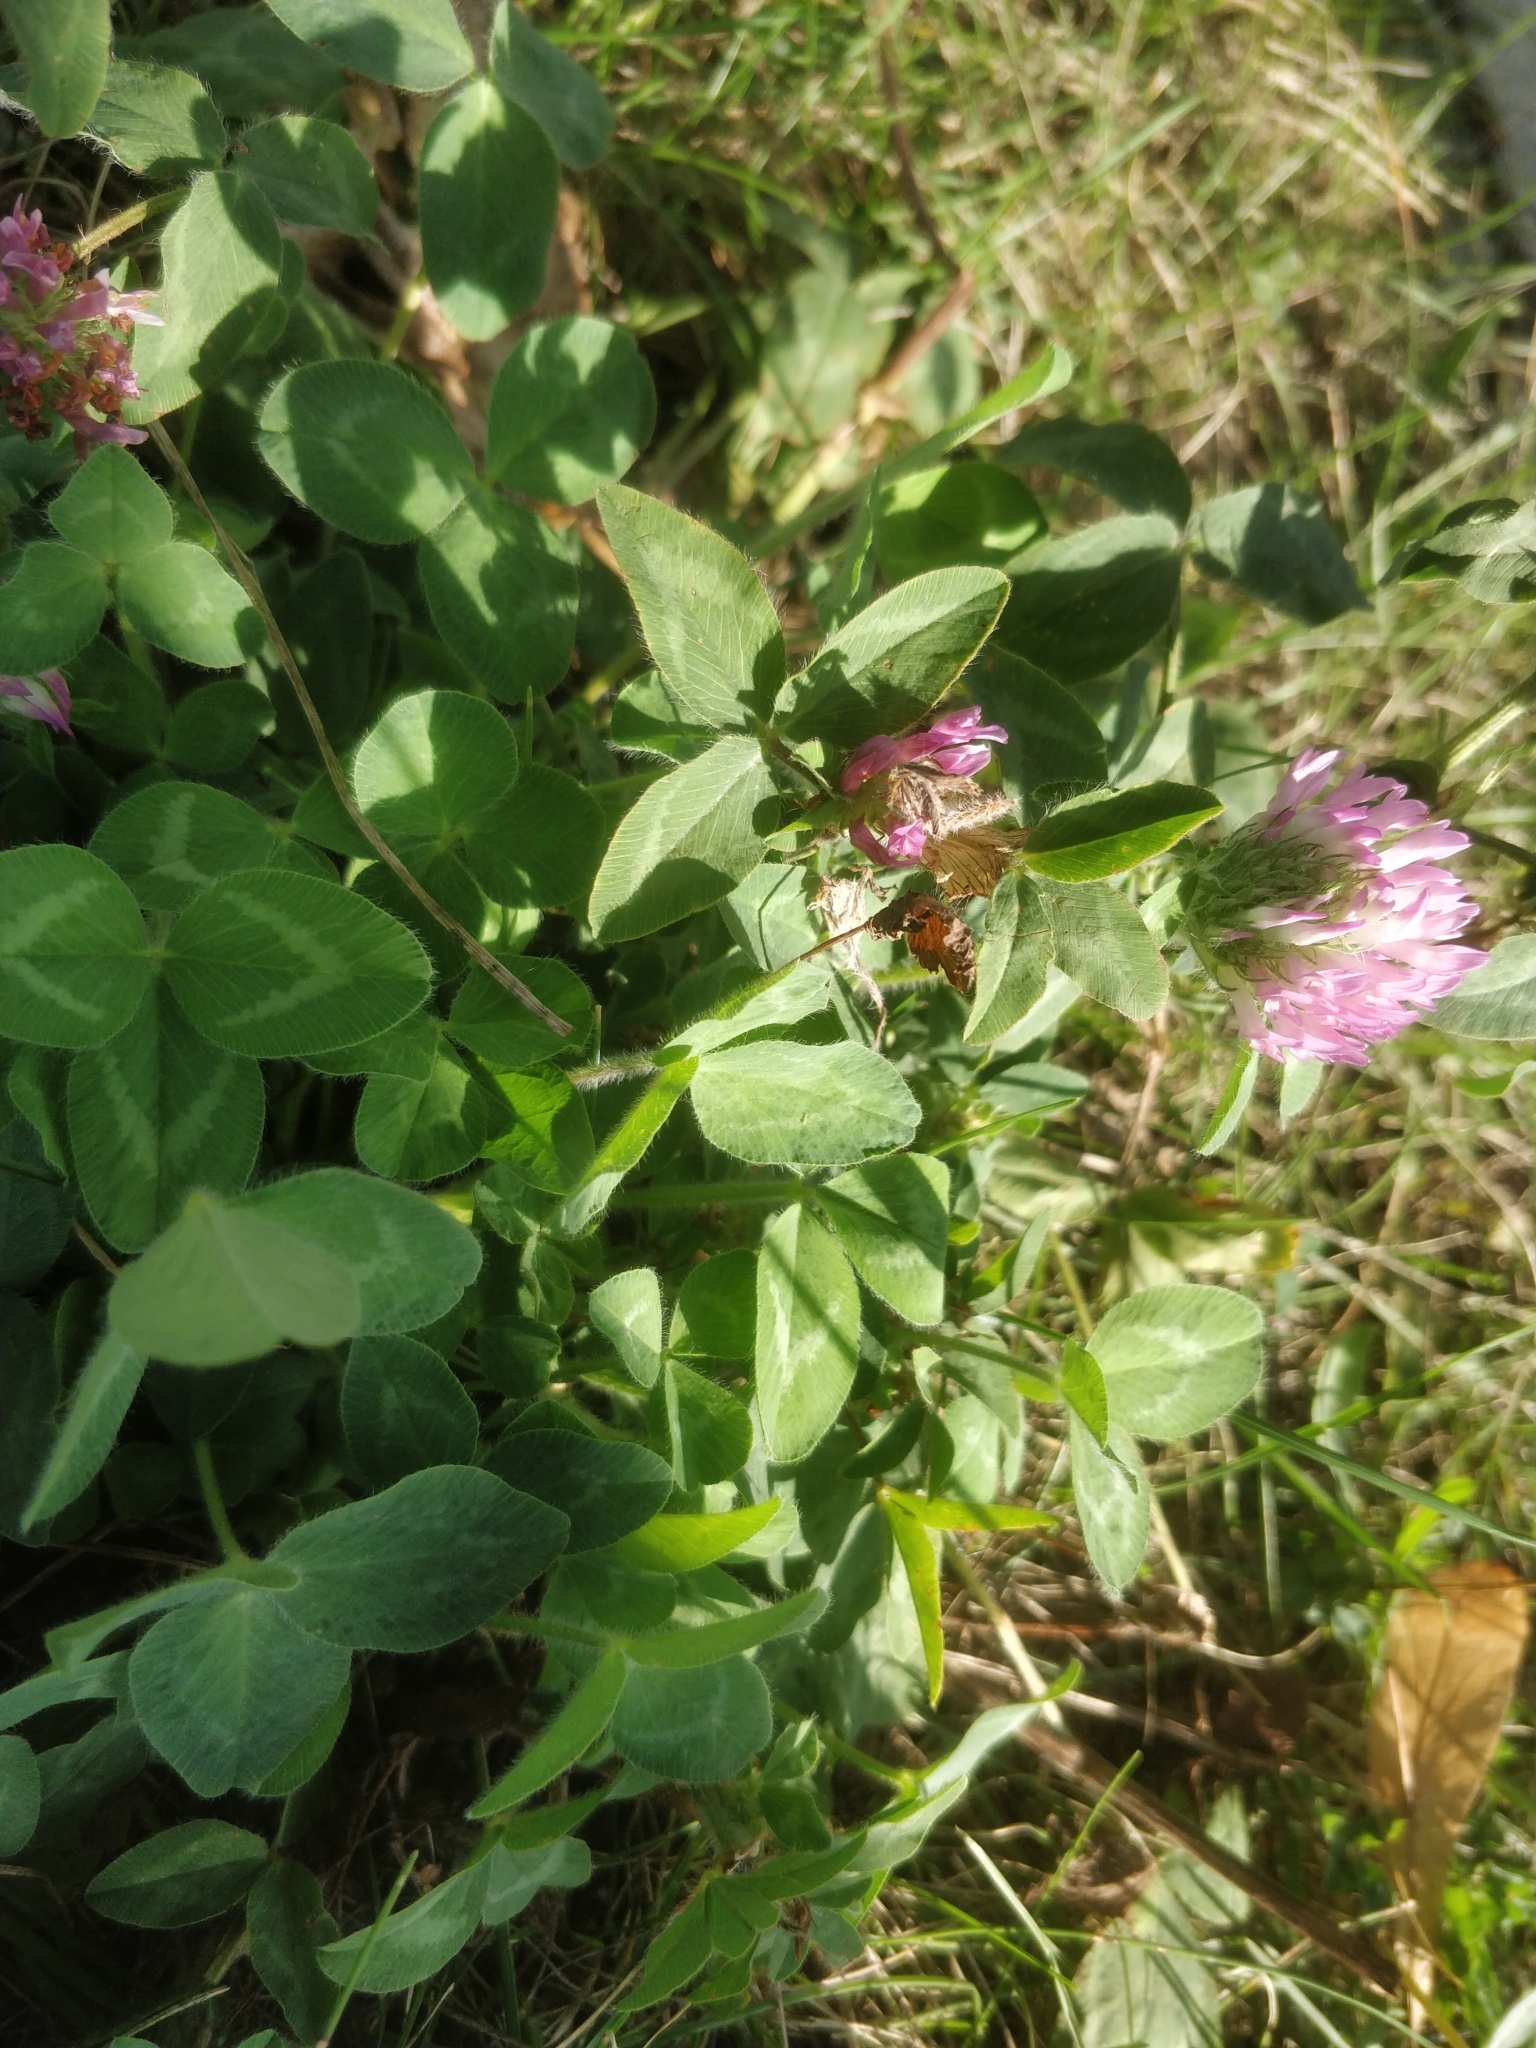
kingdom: Plantae
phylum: Tracheophyta
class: Magnoliopsida
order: Fabales
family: Fabaceae
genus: Trifolium
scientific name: Trifolium pratense
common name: Red clover
